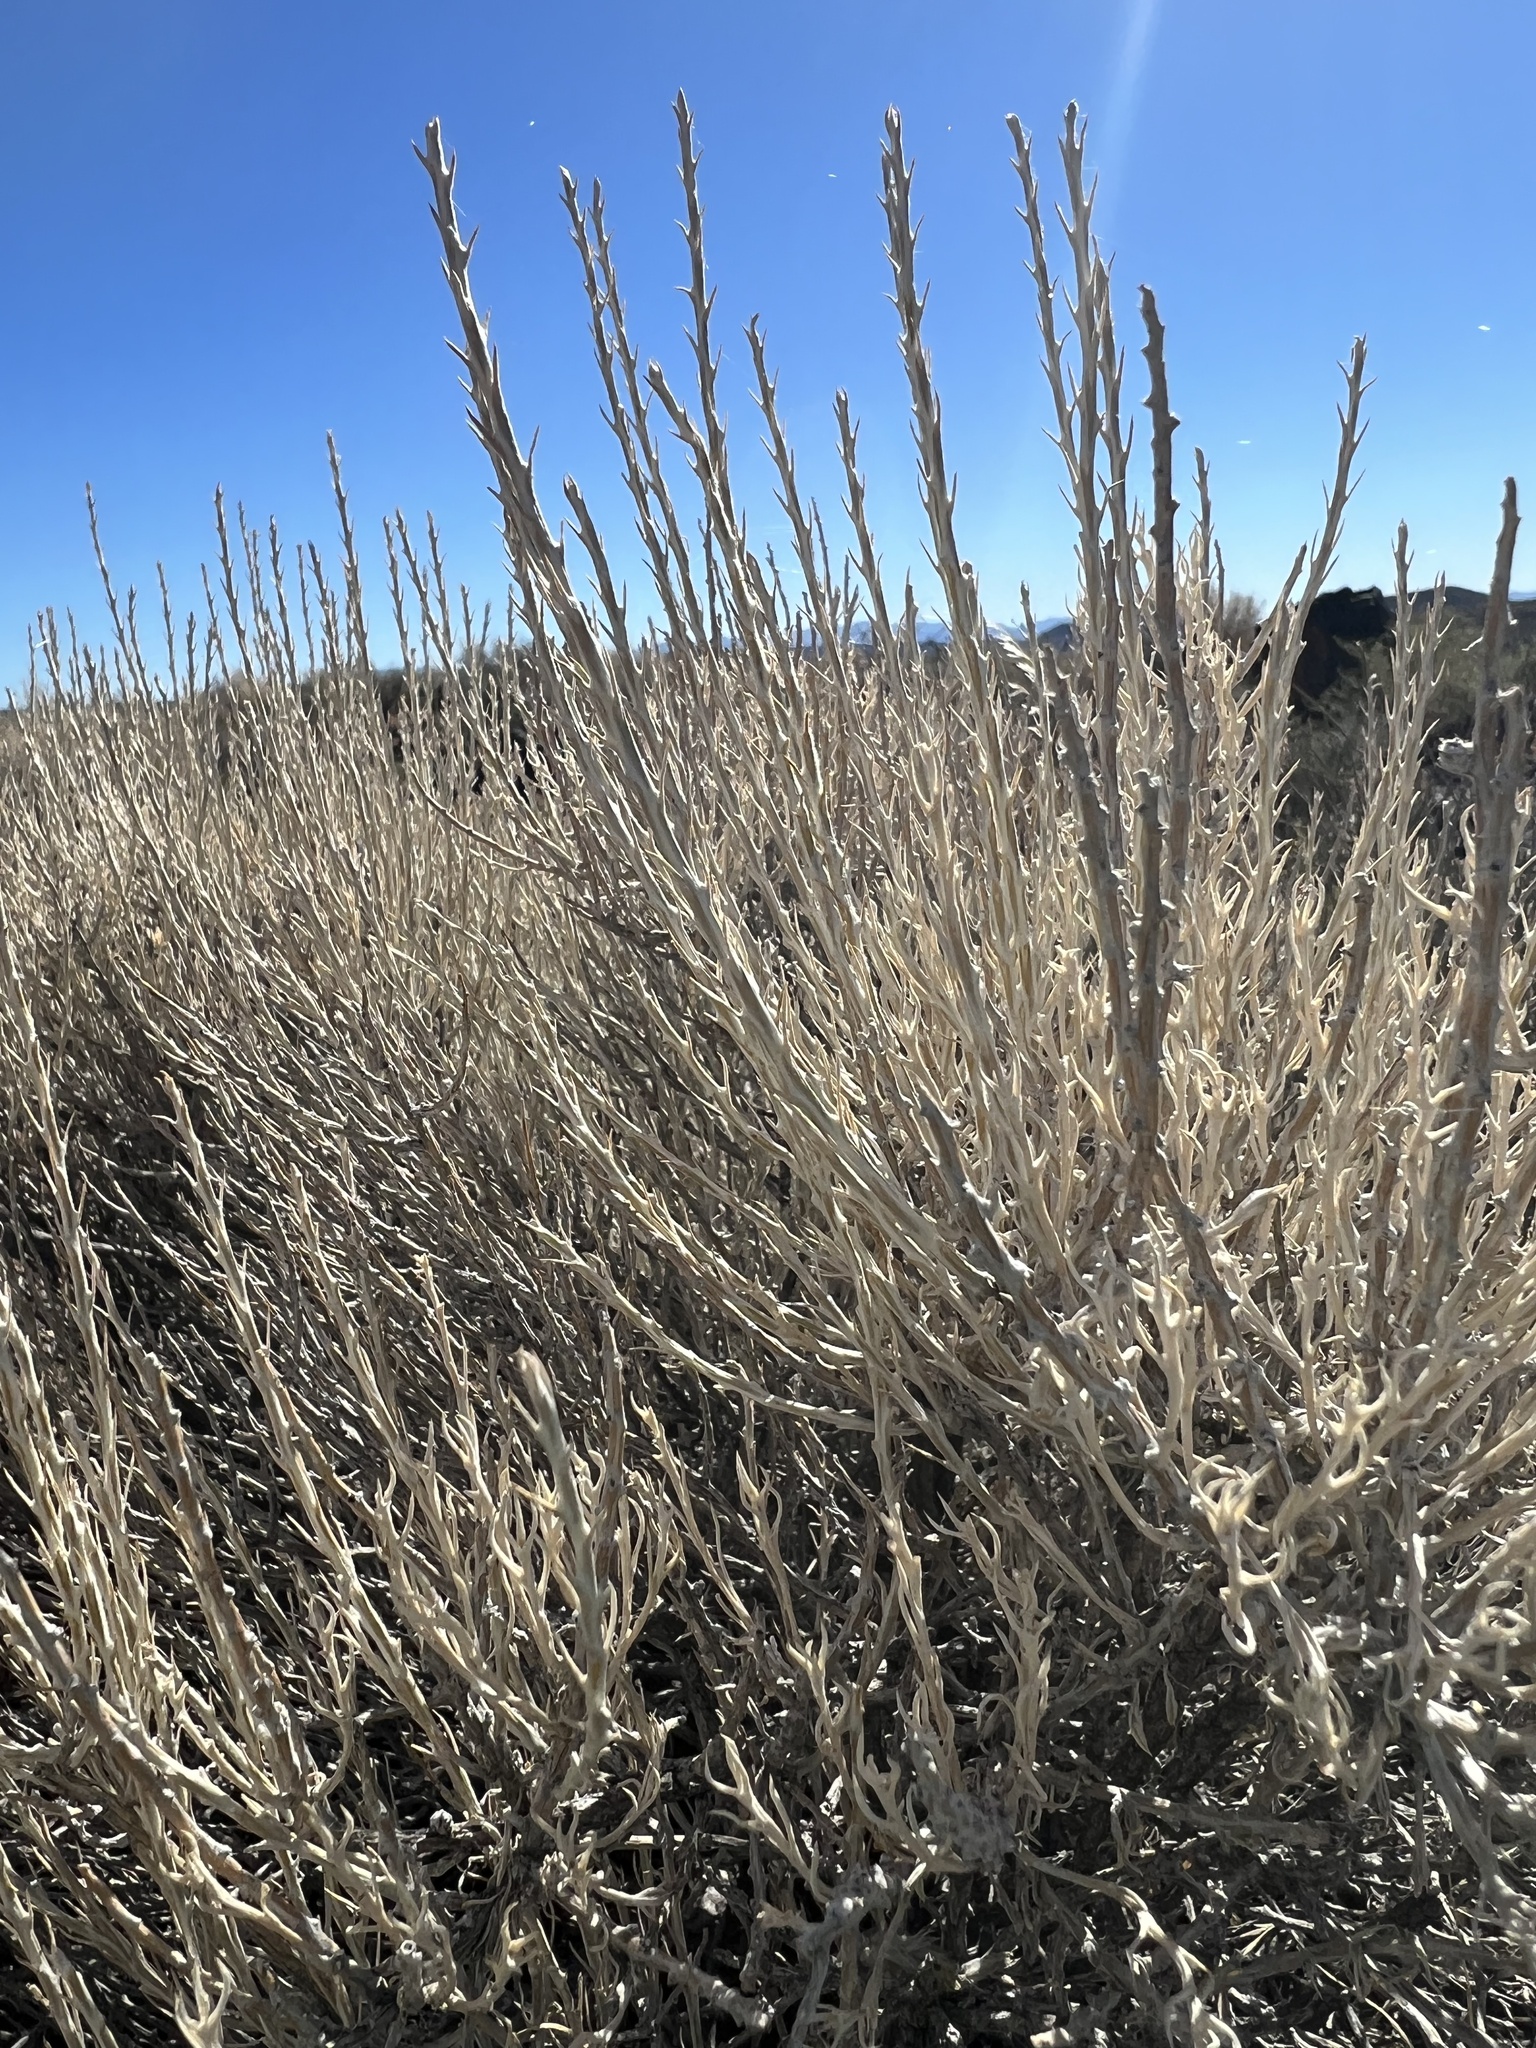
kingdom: Plantae
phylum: Tracheophyta
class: Magnoliopsida
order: Asterales
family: Asteraceae
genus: Tetradymia
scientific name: Tetradymia glabrata
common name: Smooth tetradymia
